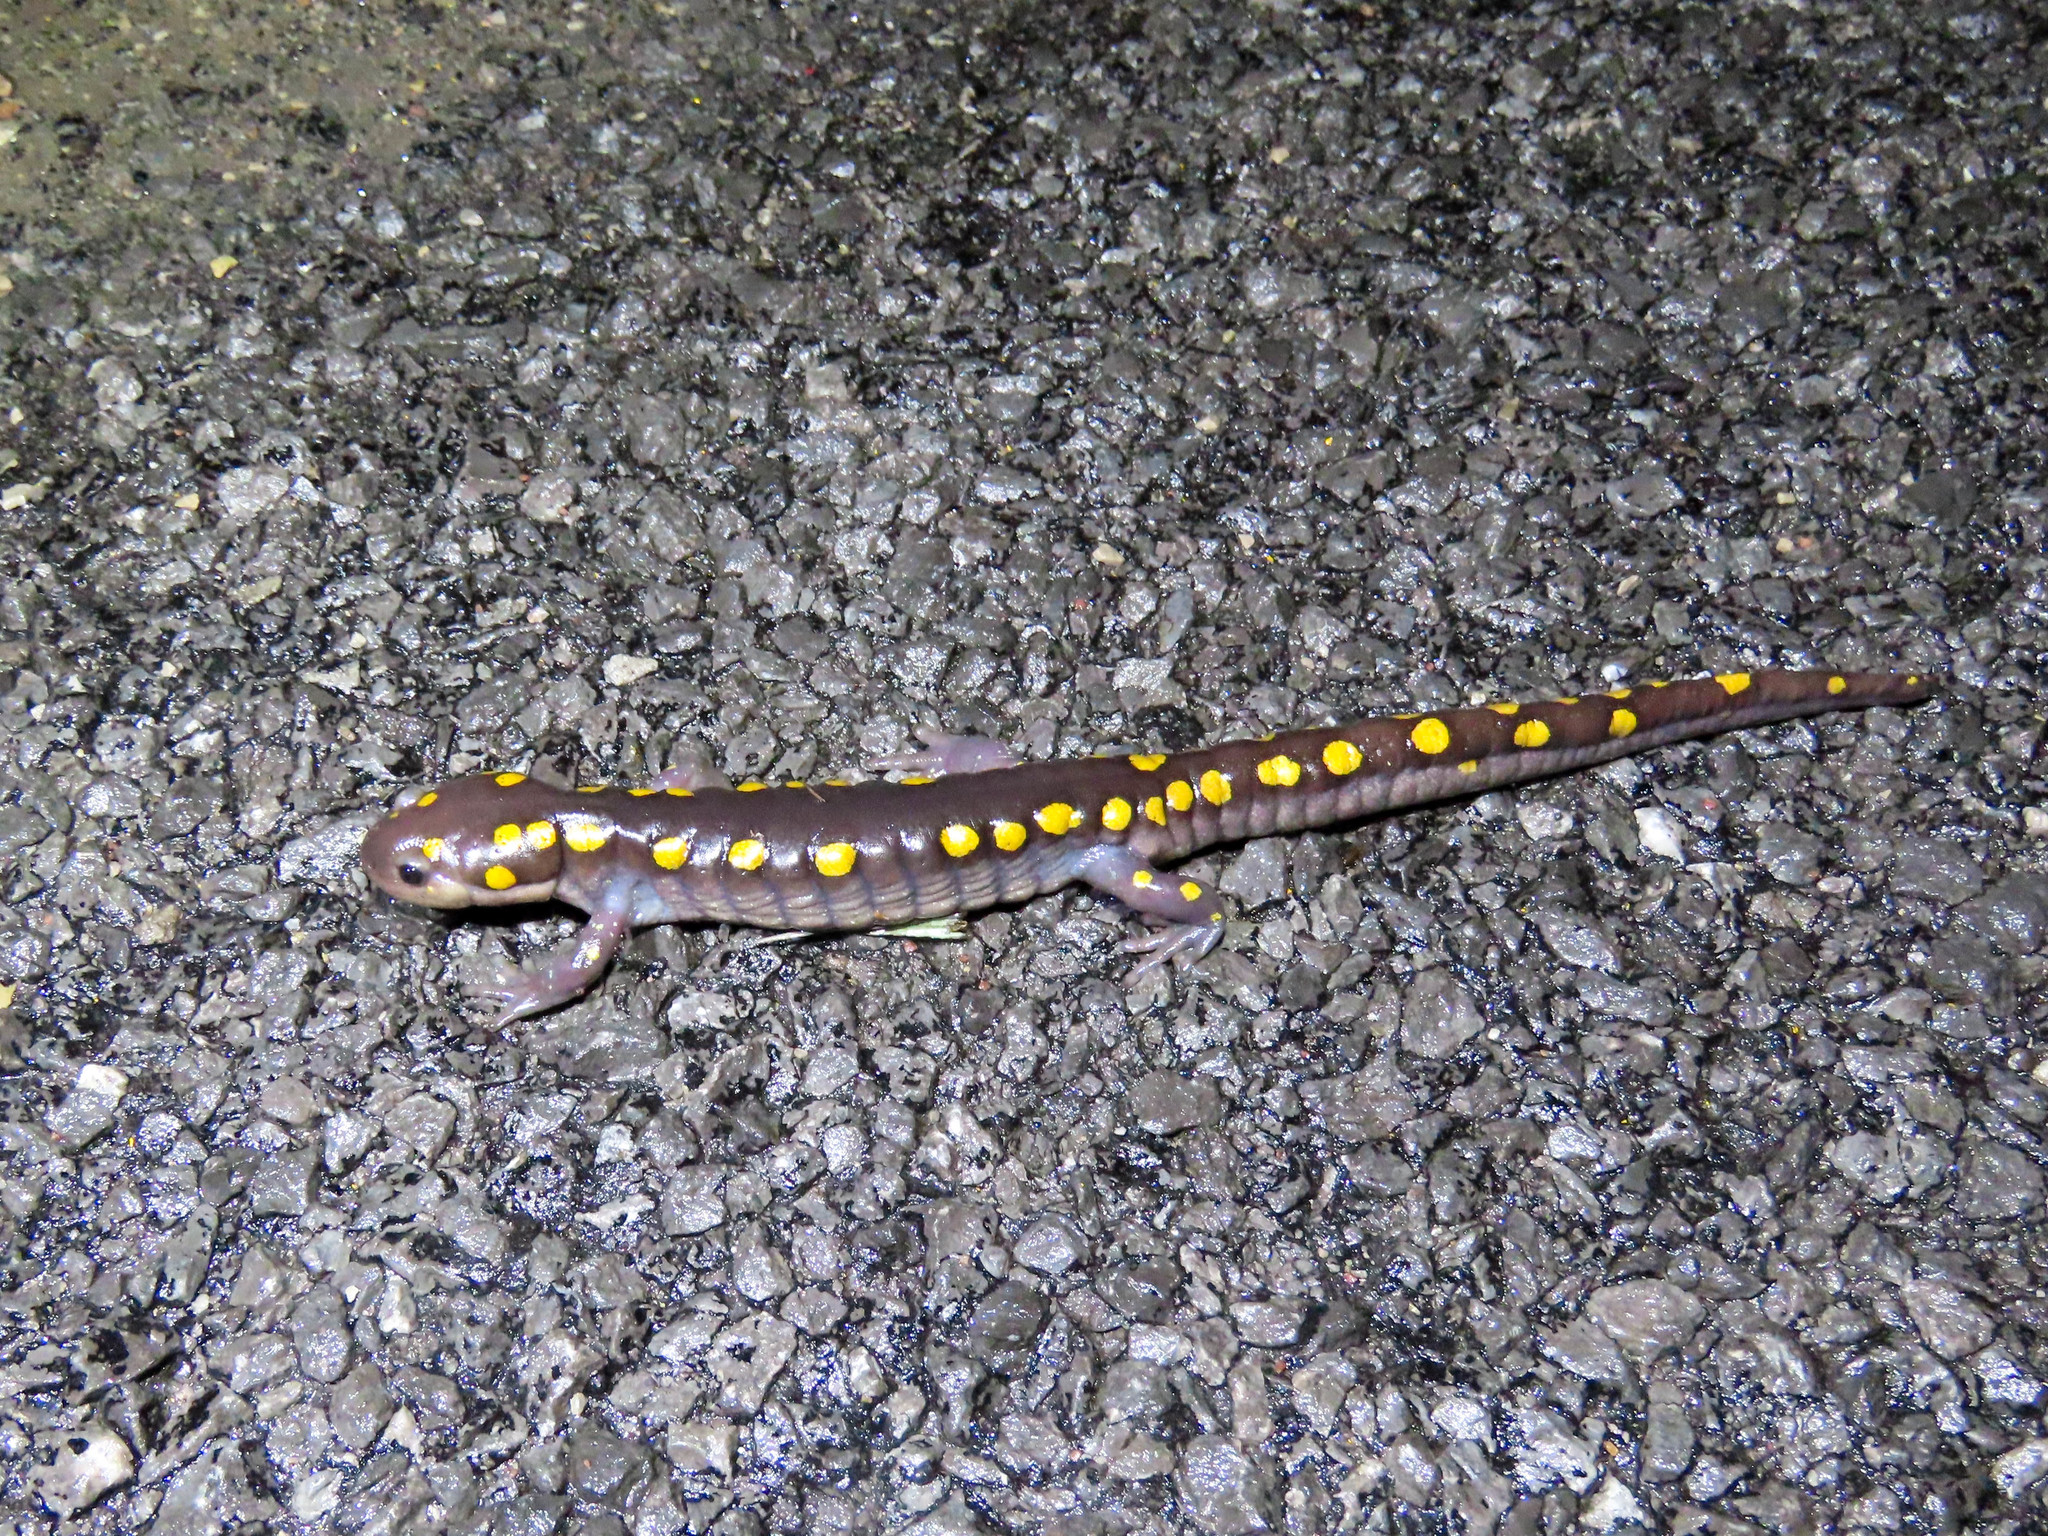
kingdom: Animalia
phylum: Chordata
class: Amphibia
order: Caudata
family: Ambystomatidae
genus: Ambystoma
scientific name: Ambystoma maculatum
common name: Spotted salamander
